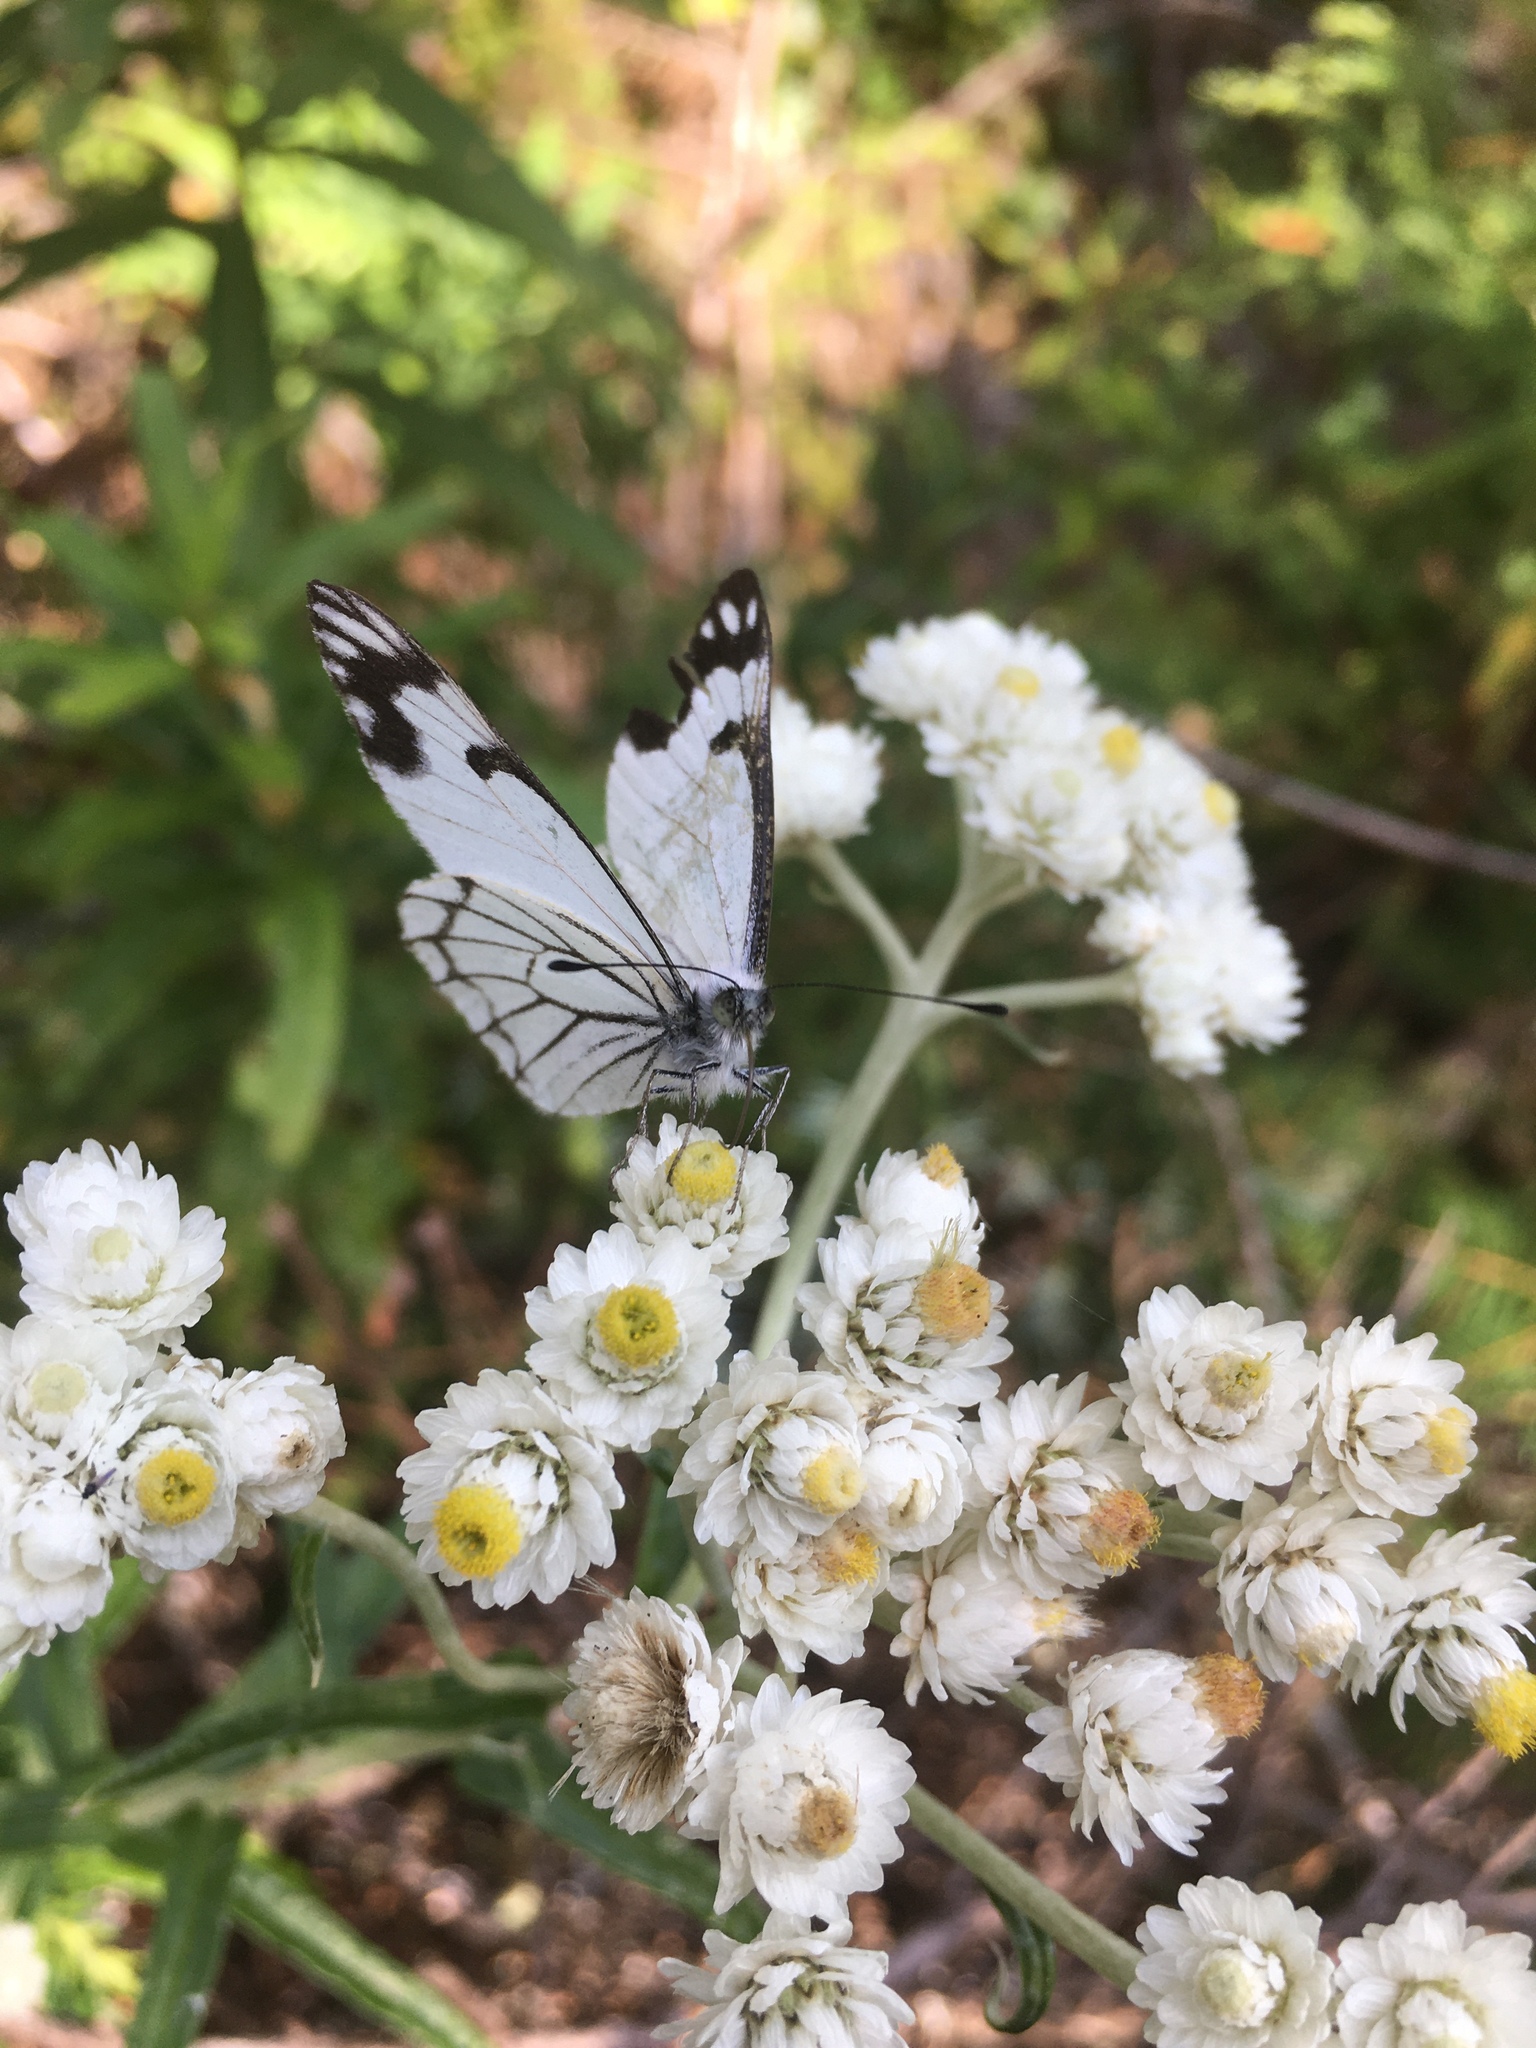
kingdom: Animalia
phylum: Arthropoda
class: Insecta
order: Lepidoptera
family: Pieridae
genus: Neophasia
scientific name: Neophasia menapia
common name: Pine white
